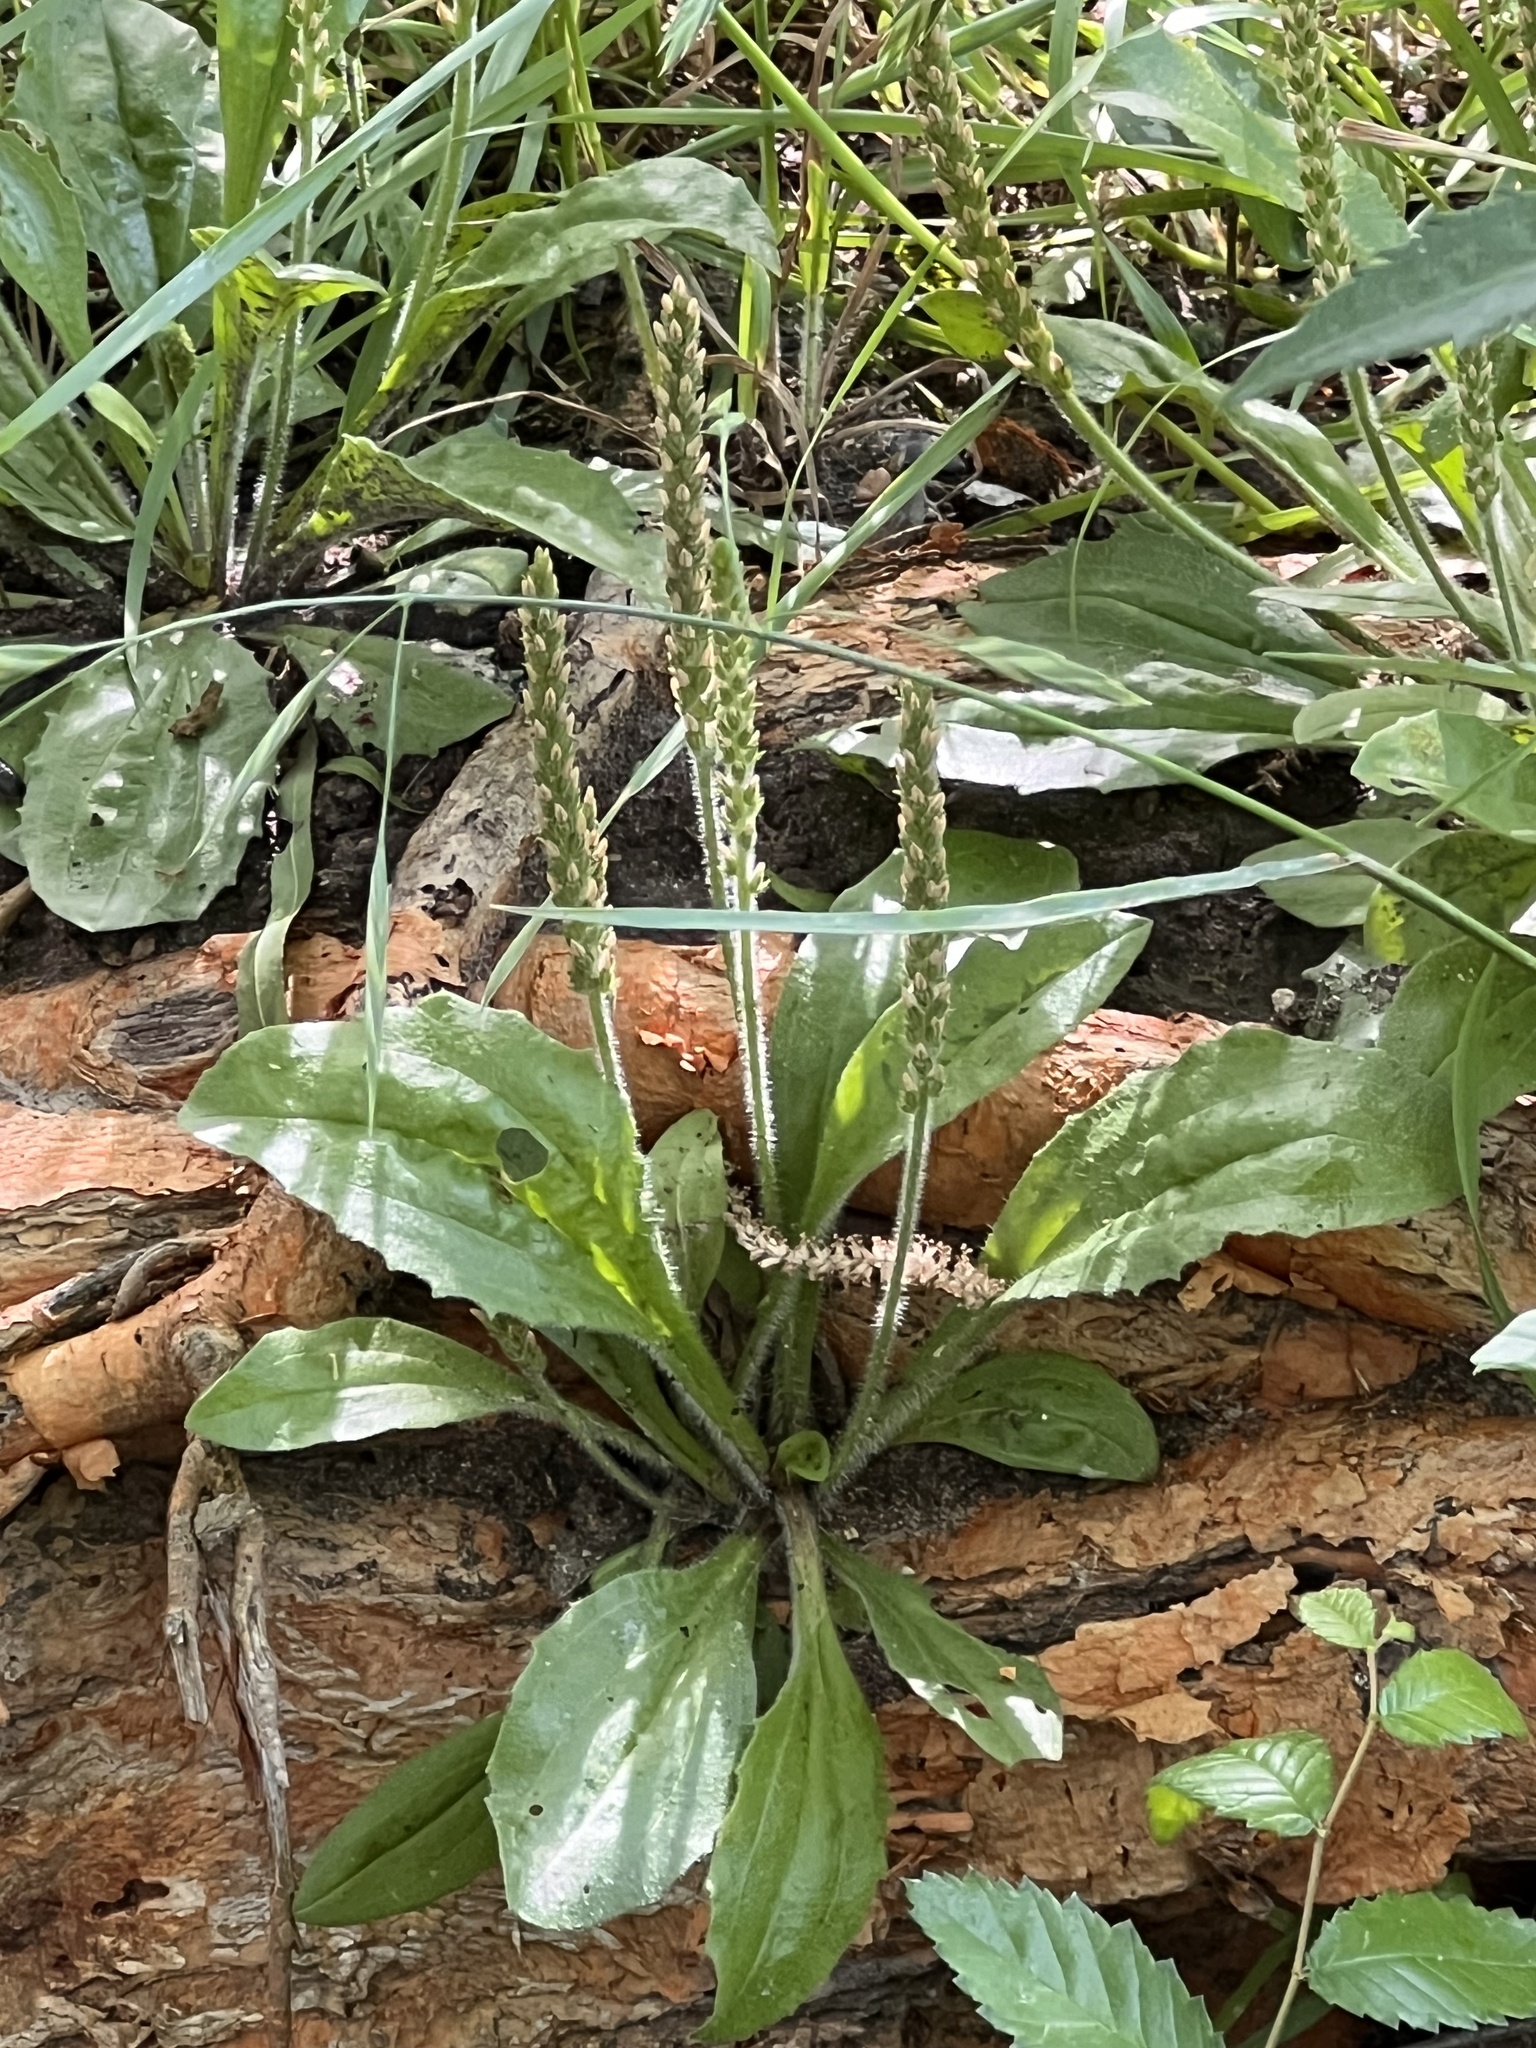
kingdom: Plantae
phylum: Tracheophyta
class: Magnoliopsida
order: Lamiales
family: Plantaginaceae
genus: Plantago
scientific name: Plantago rhodosperma
